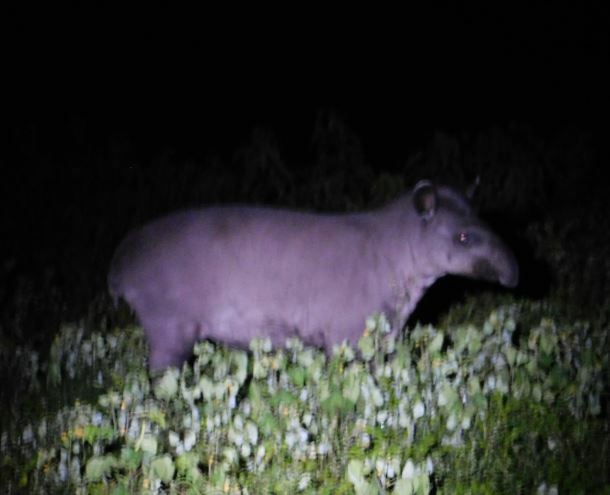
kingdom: Animalia
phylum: Chordata
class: Mammalia
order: Perissodactyla
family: Tapiridae
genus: Tapirus
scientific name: Tapirus terrestris
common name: Brazilian tapir
